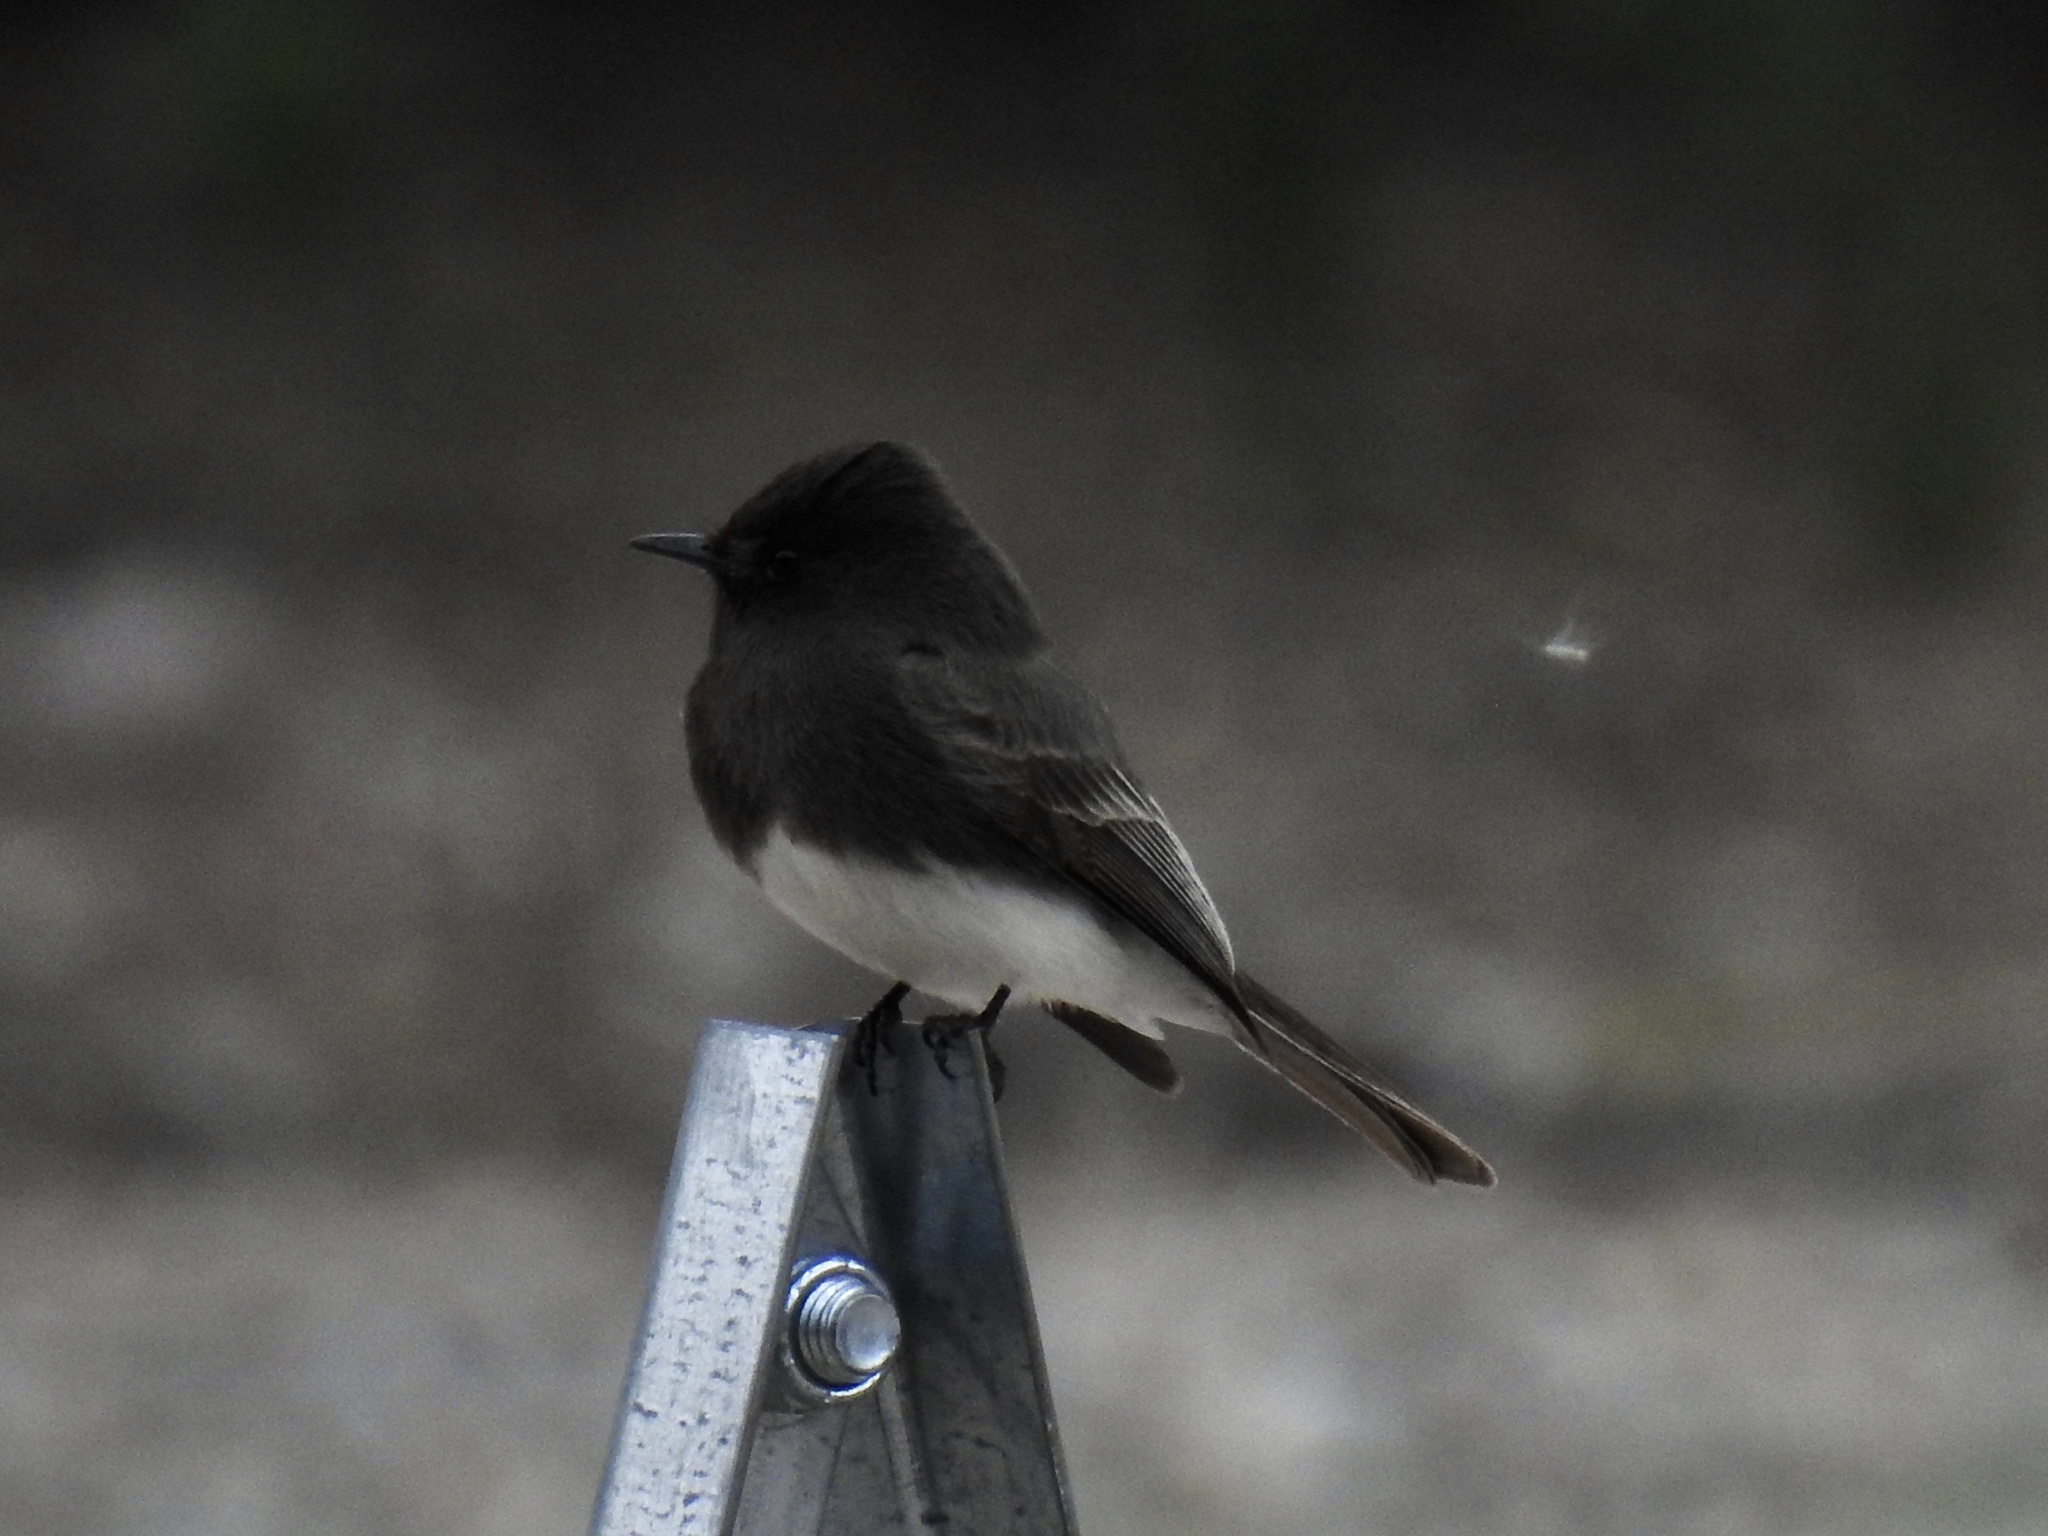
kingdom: Animalia
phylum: Chordata
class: Aves
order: Passeriformes
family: Tyrannidae
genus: Sayornis
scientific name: Sayornis nigricans
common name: Black phoebe
